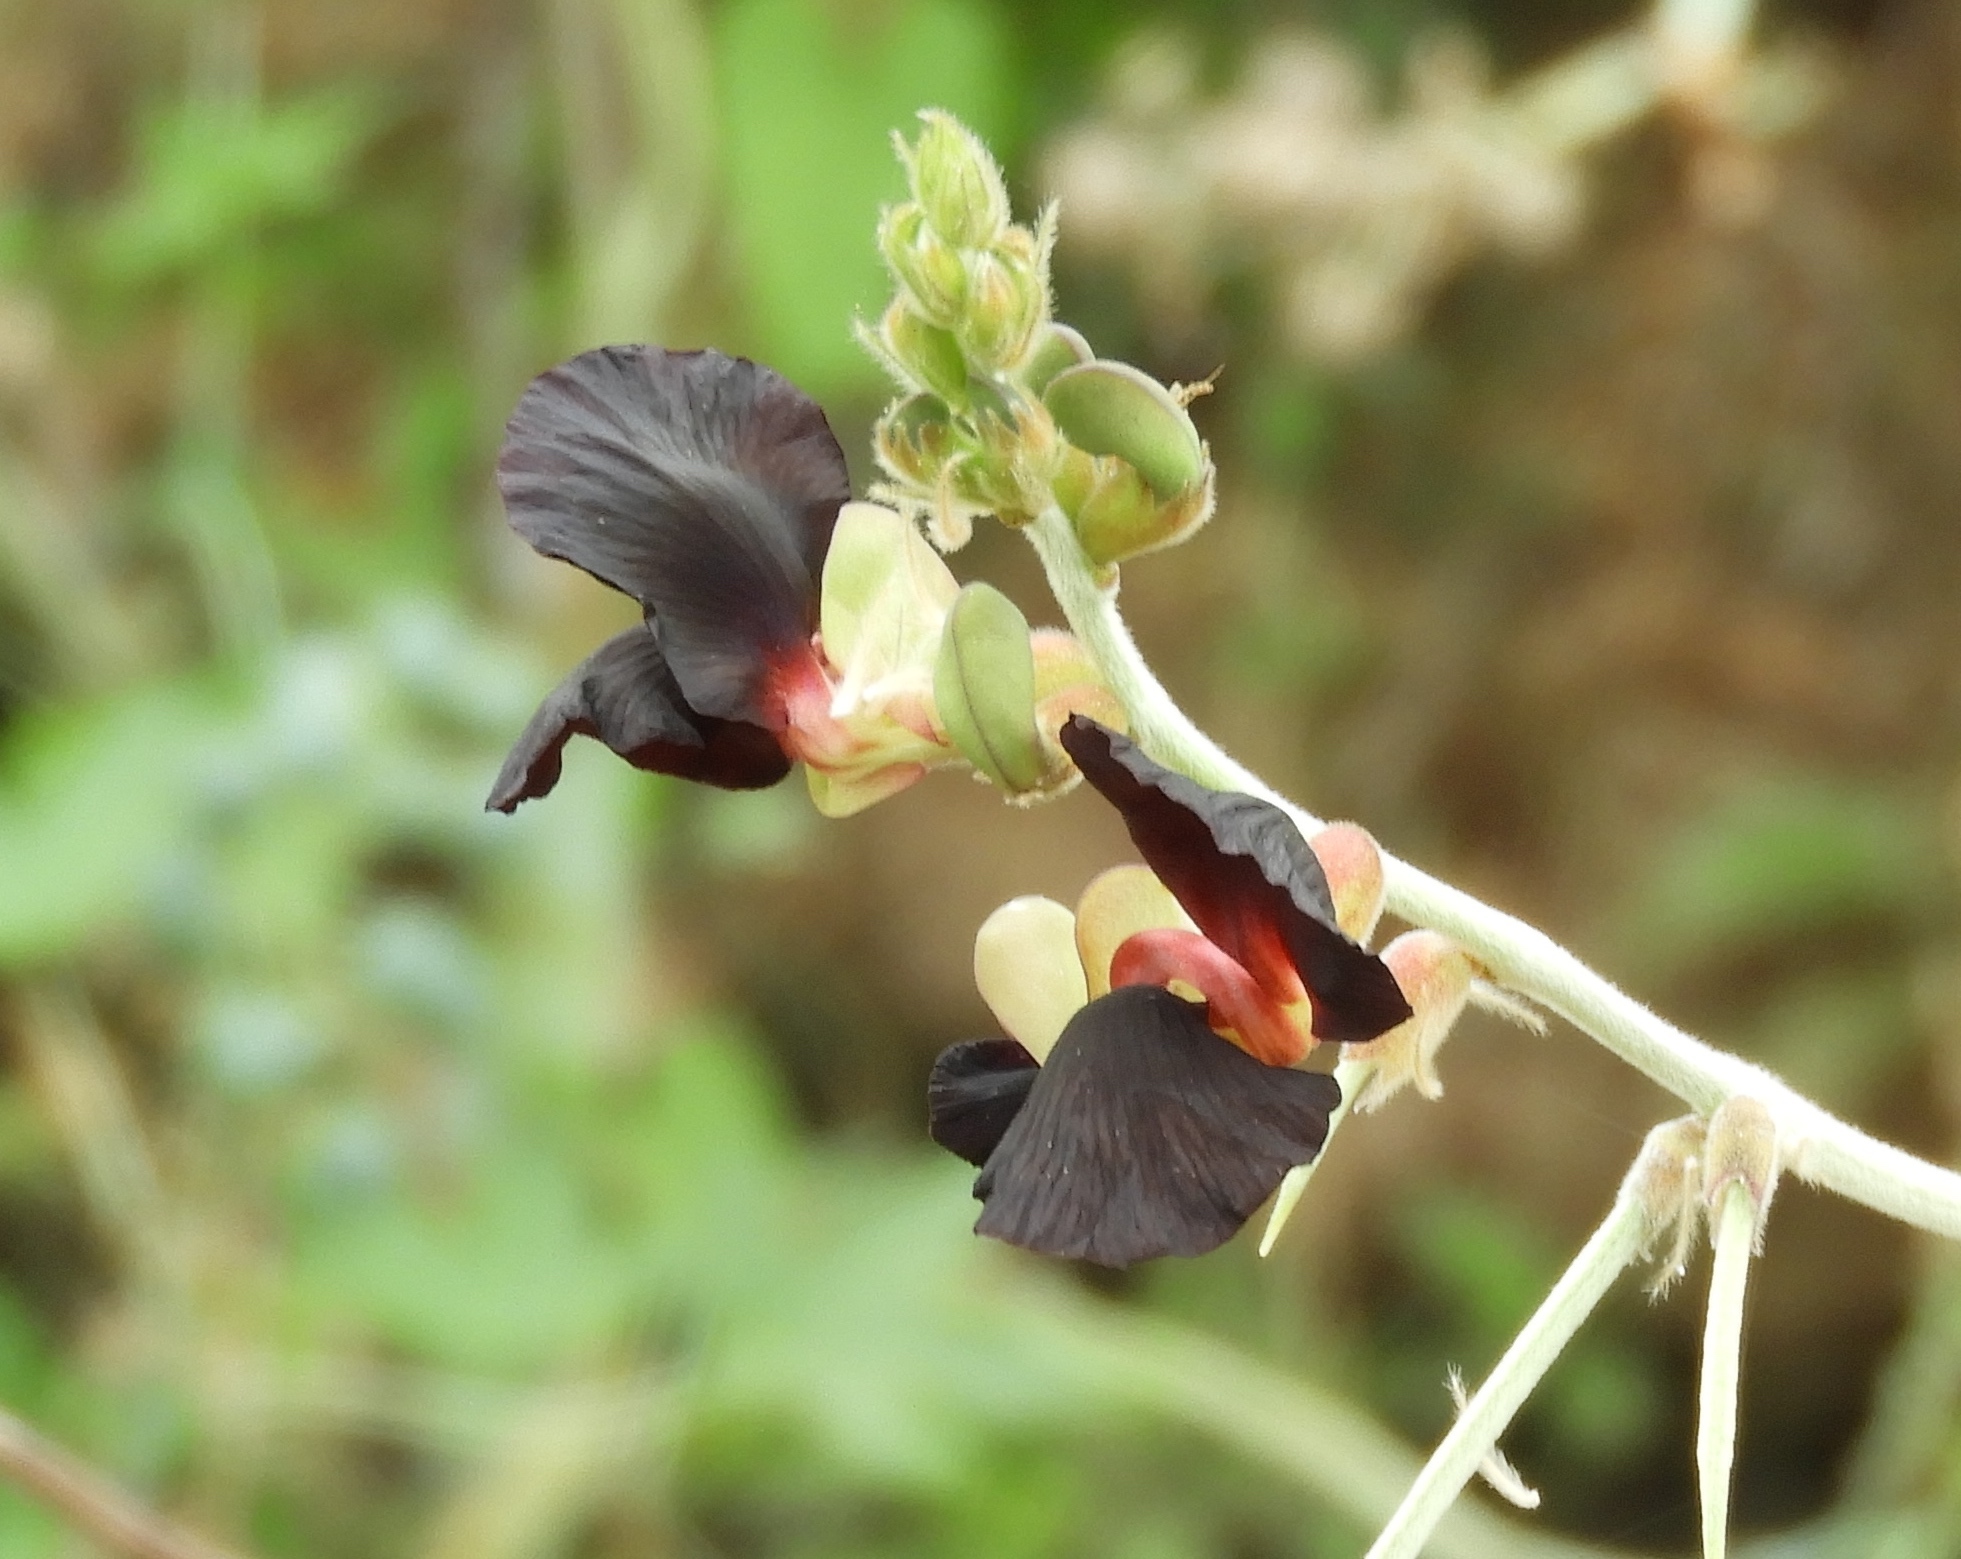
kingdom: Plantae
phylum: Tracheophyta
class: Magnoliopsida
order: Fabales
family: Fabaceae
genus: Macroptilium
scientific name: Macroptilium atropurpureum
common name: Purple bushbean
